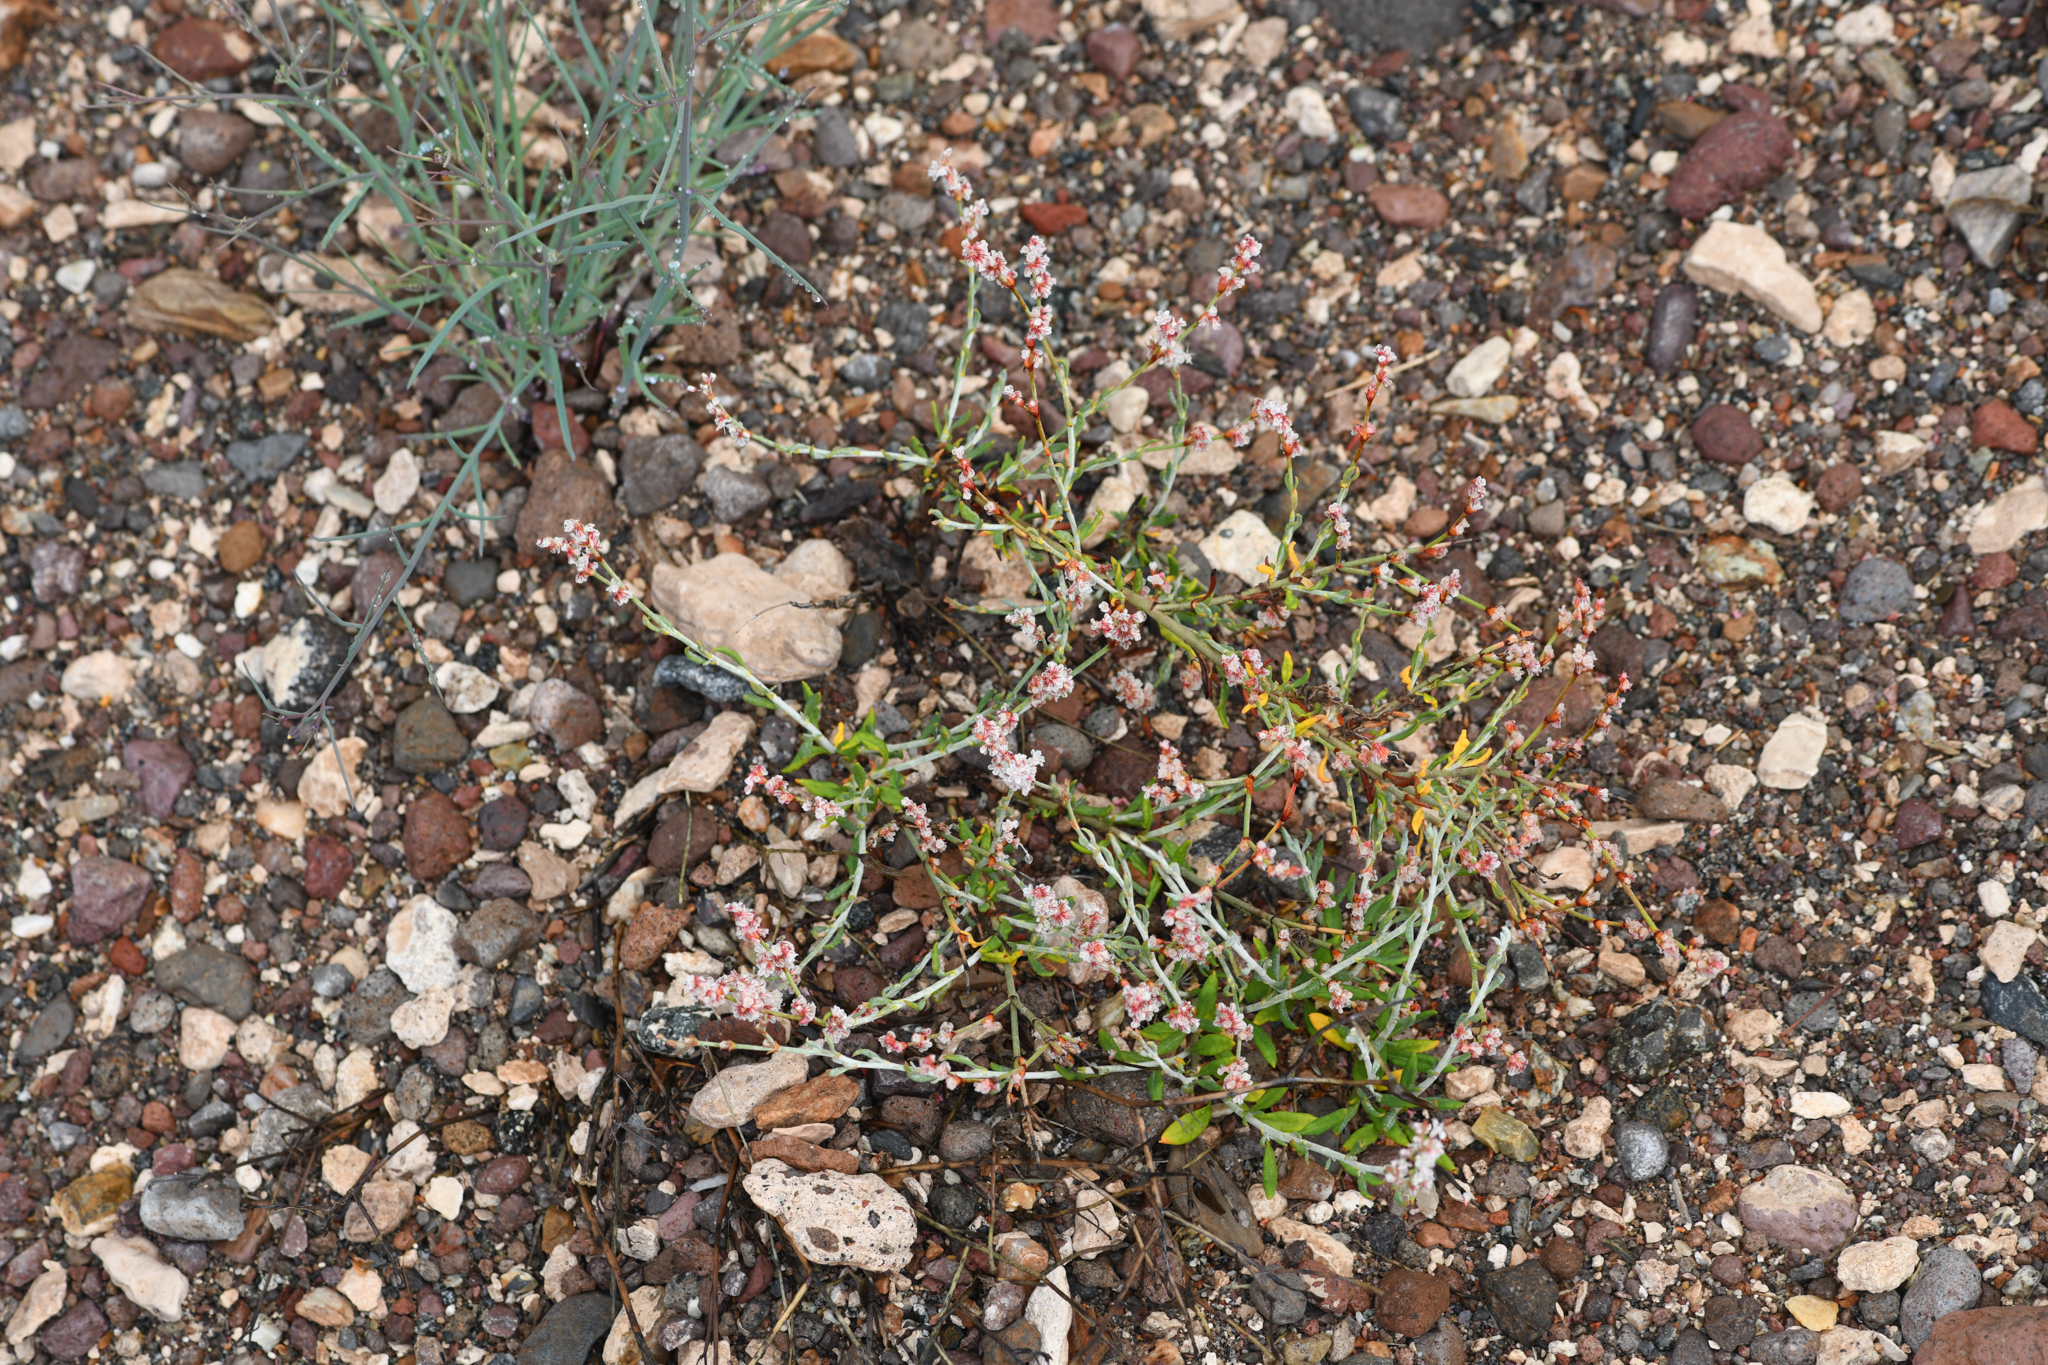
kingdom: Plantae
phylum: Tracheophyta
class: Magnoliopsida
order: Caryophyllales
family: Polygonaceae
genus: Eriogonum
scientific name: Eriogonum wrightii
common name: Bastard-sage
